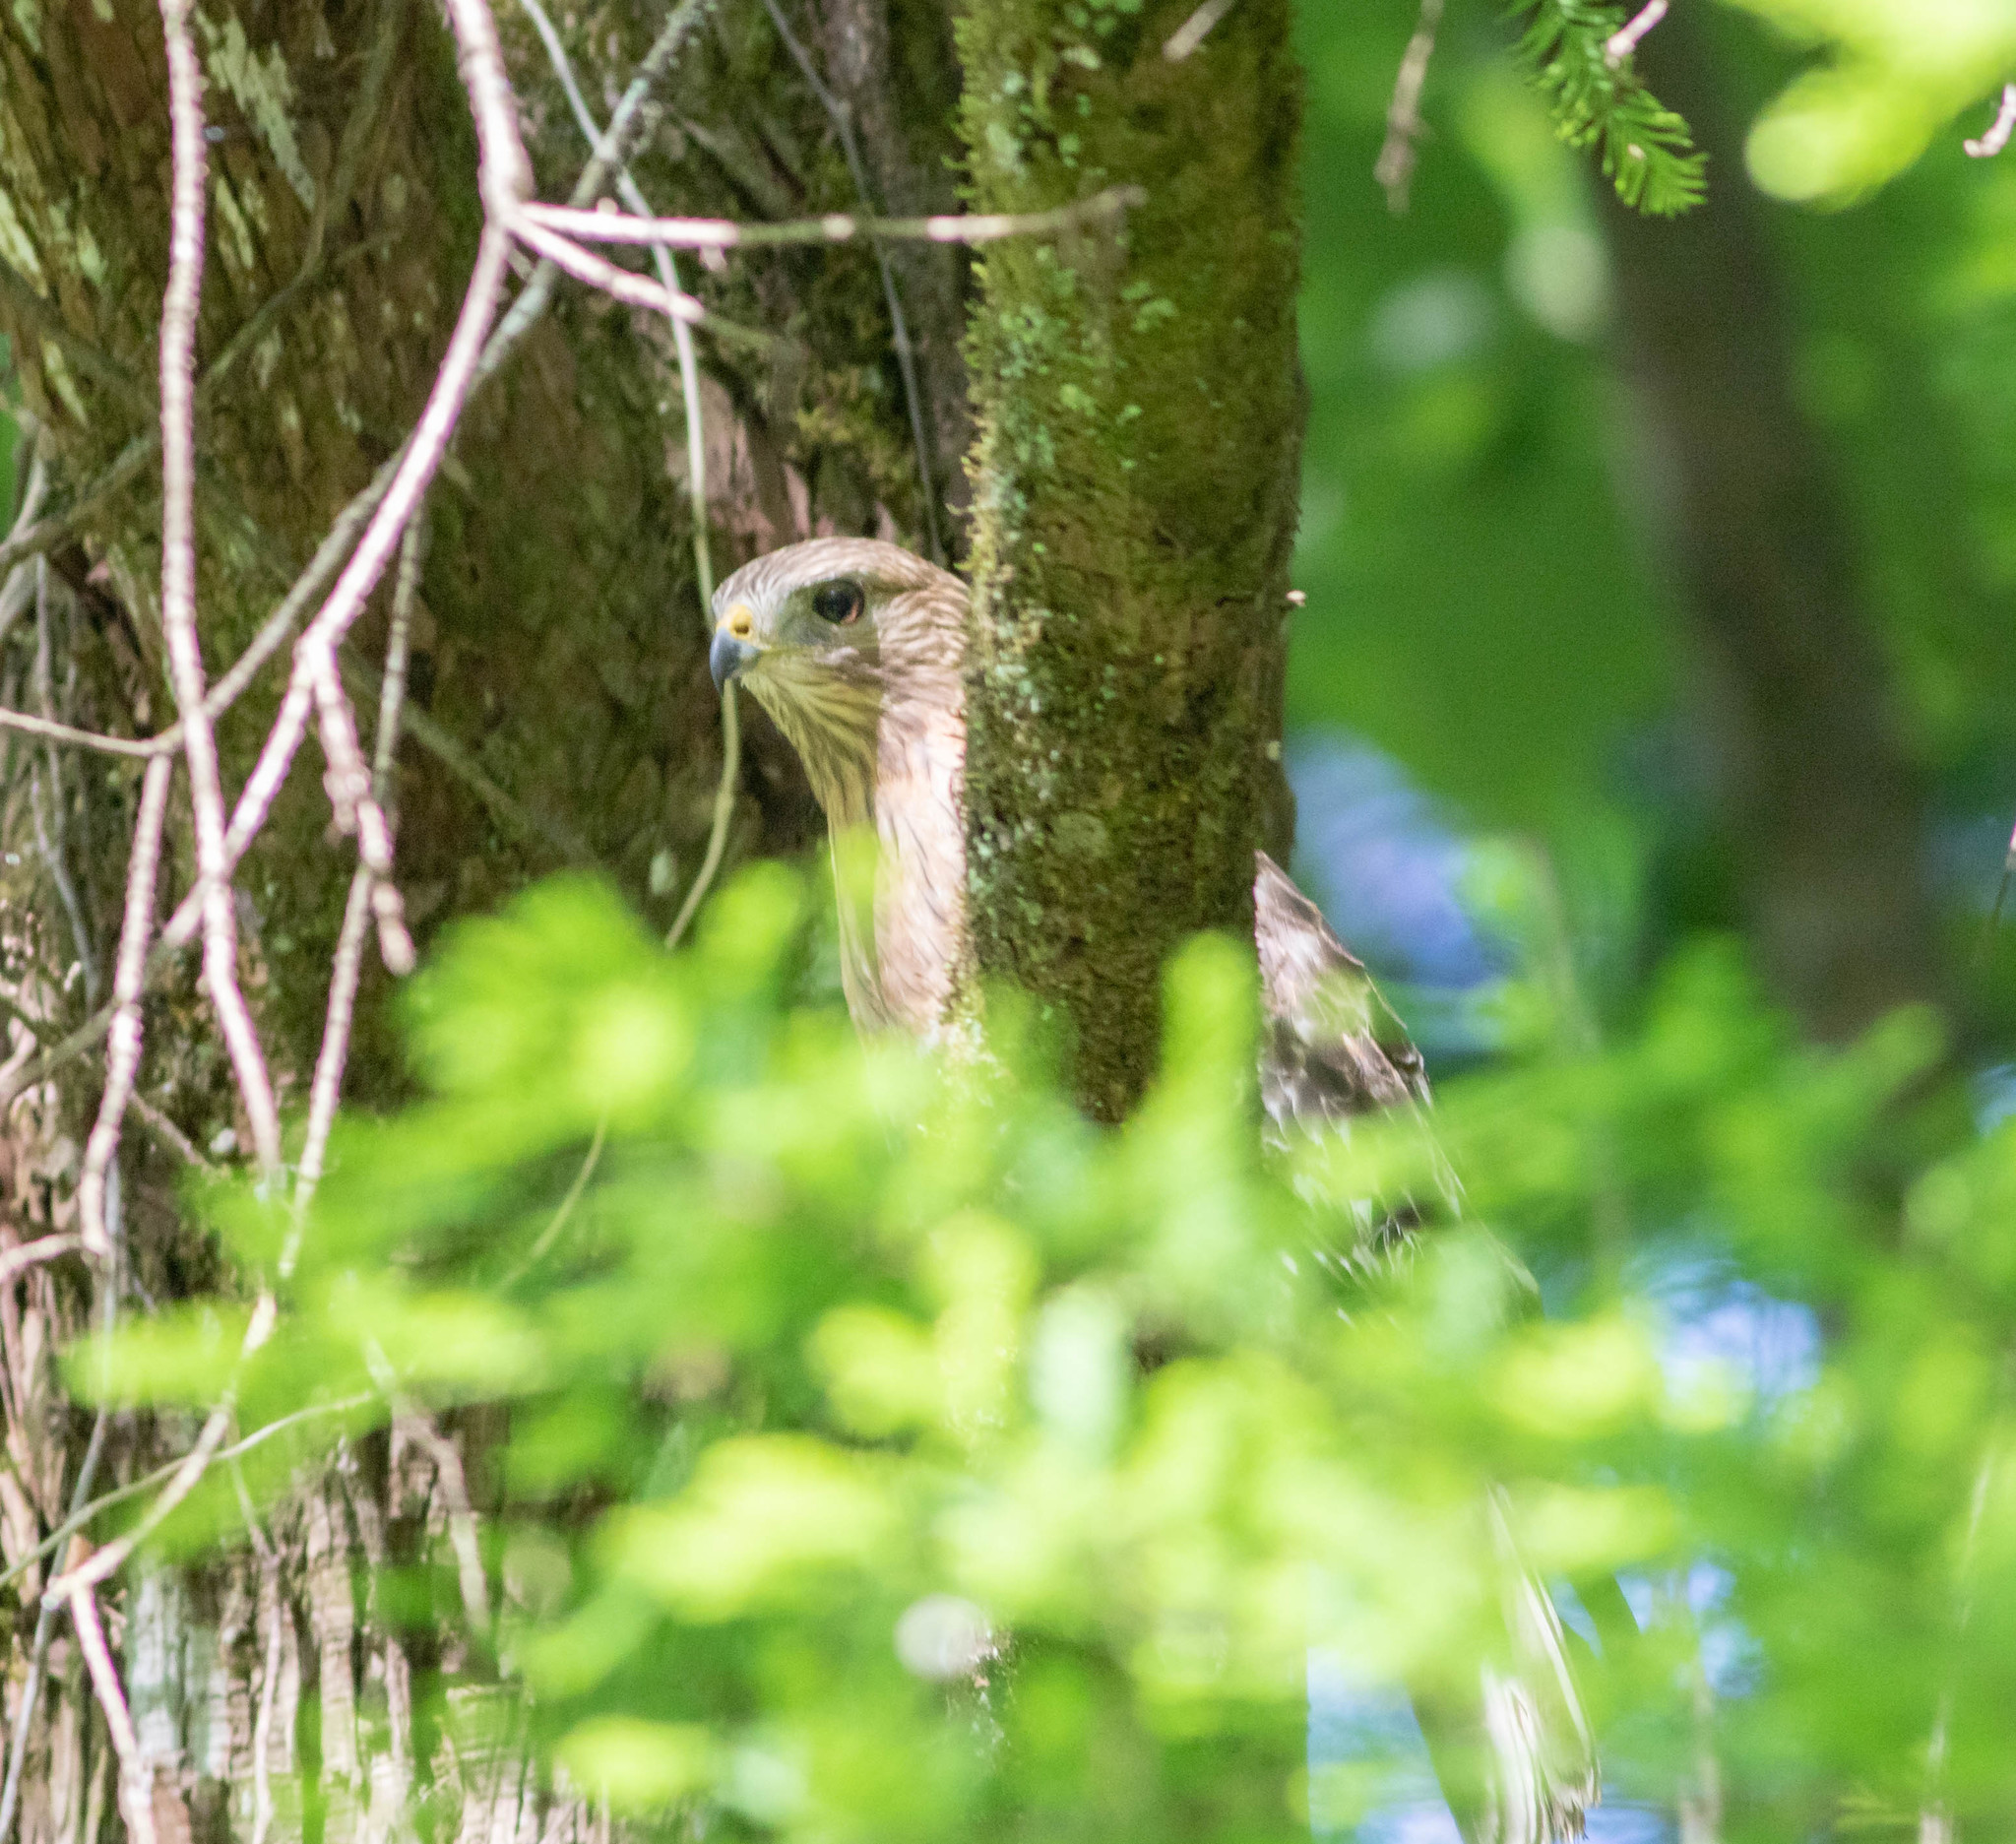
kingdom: Animalia
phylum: Chordata
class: Aves
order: Accipitriformes
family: Accipitridae
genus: Buteo
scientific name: Buteo lineatus
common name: Red-shouldered hawk
